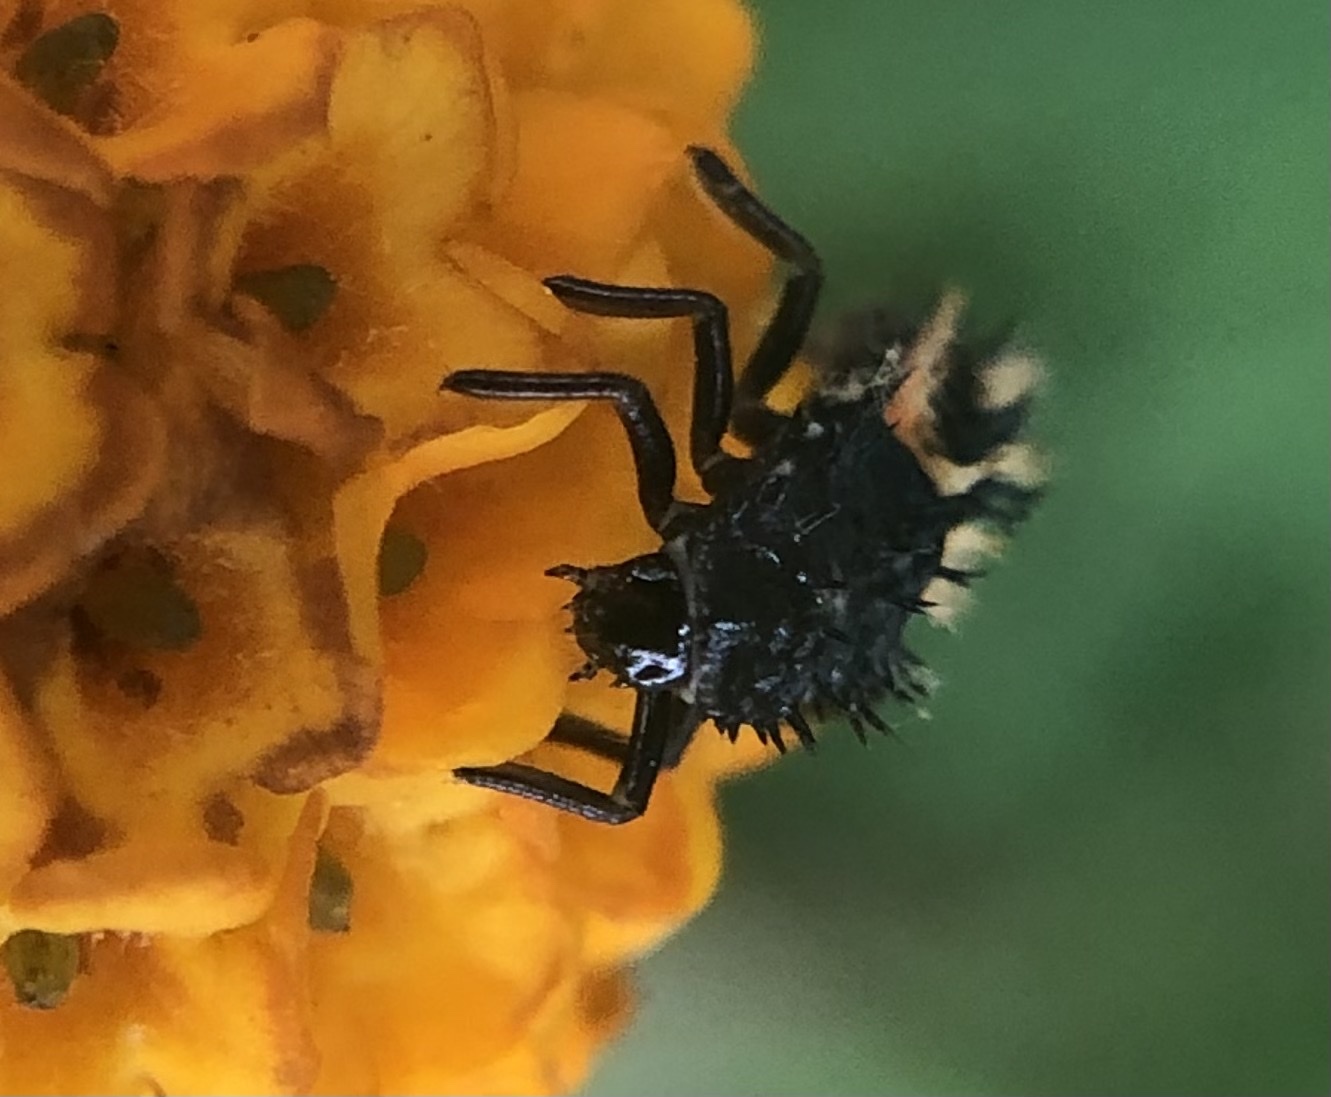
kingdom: Animalia
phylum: Arthropoda
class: Insecta
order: Coleoptera
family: Coccinellidae
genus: Harmonia
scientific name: Harmonia axyridis
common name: Harlequin ladybird
